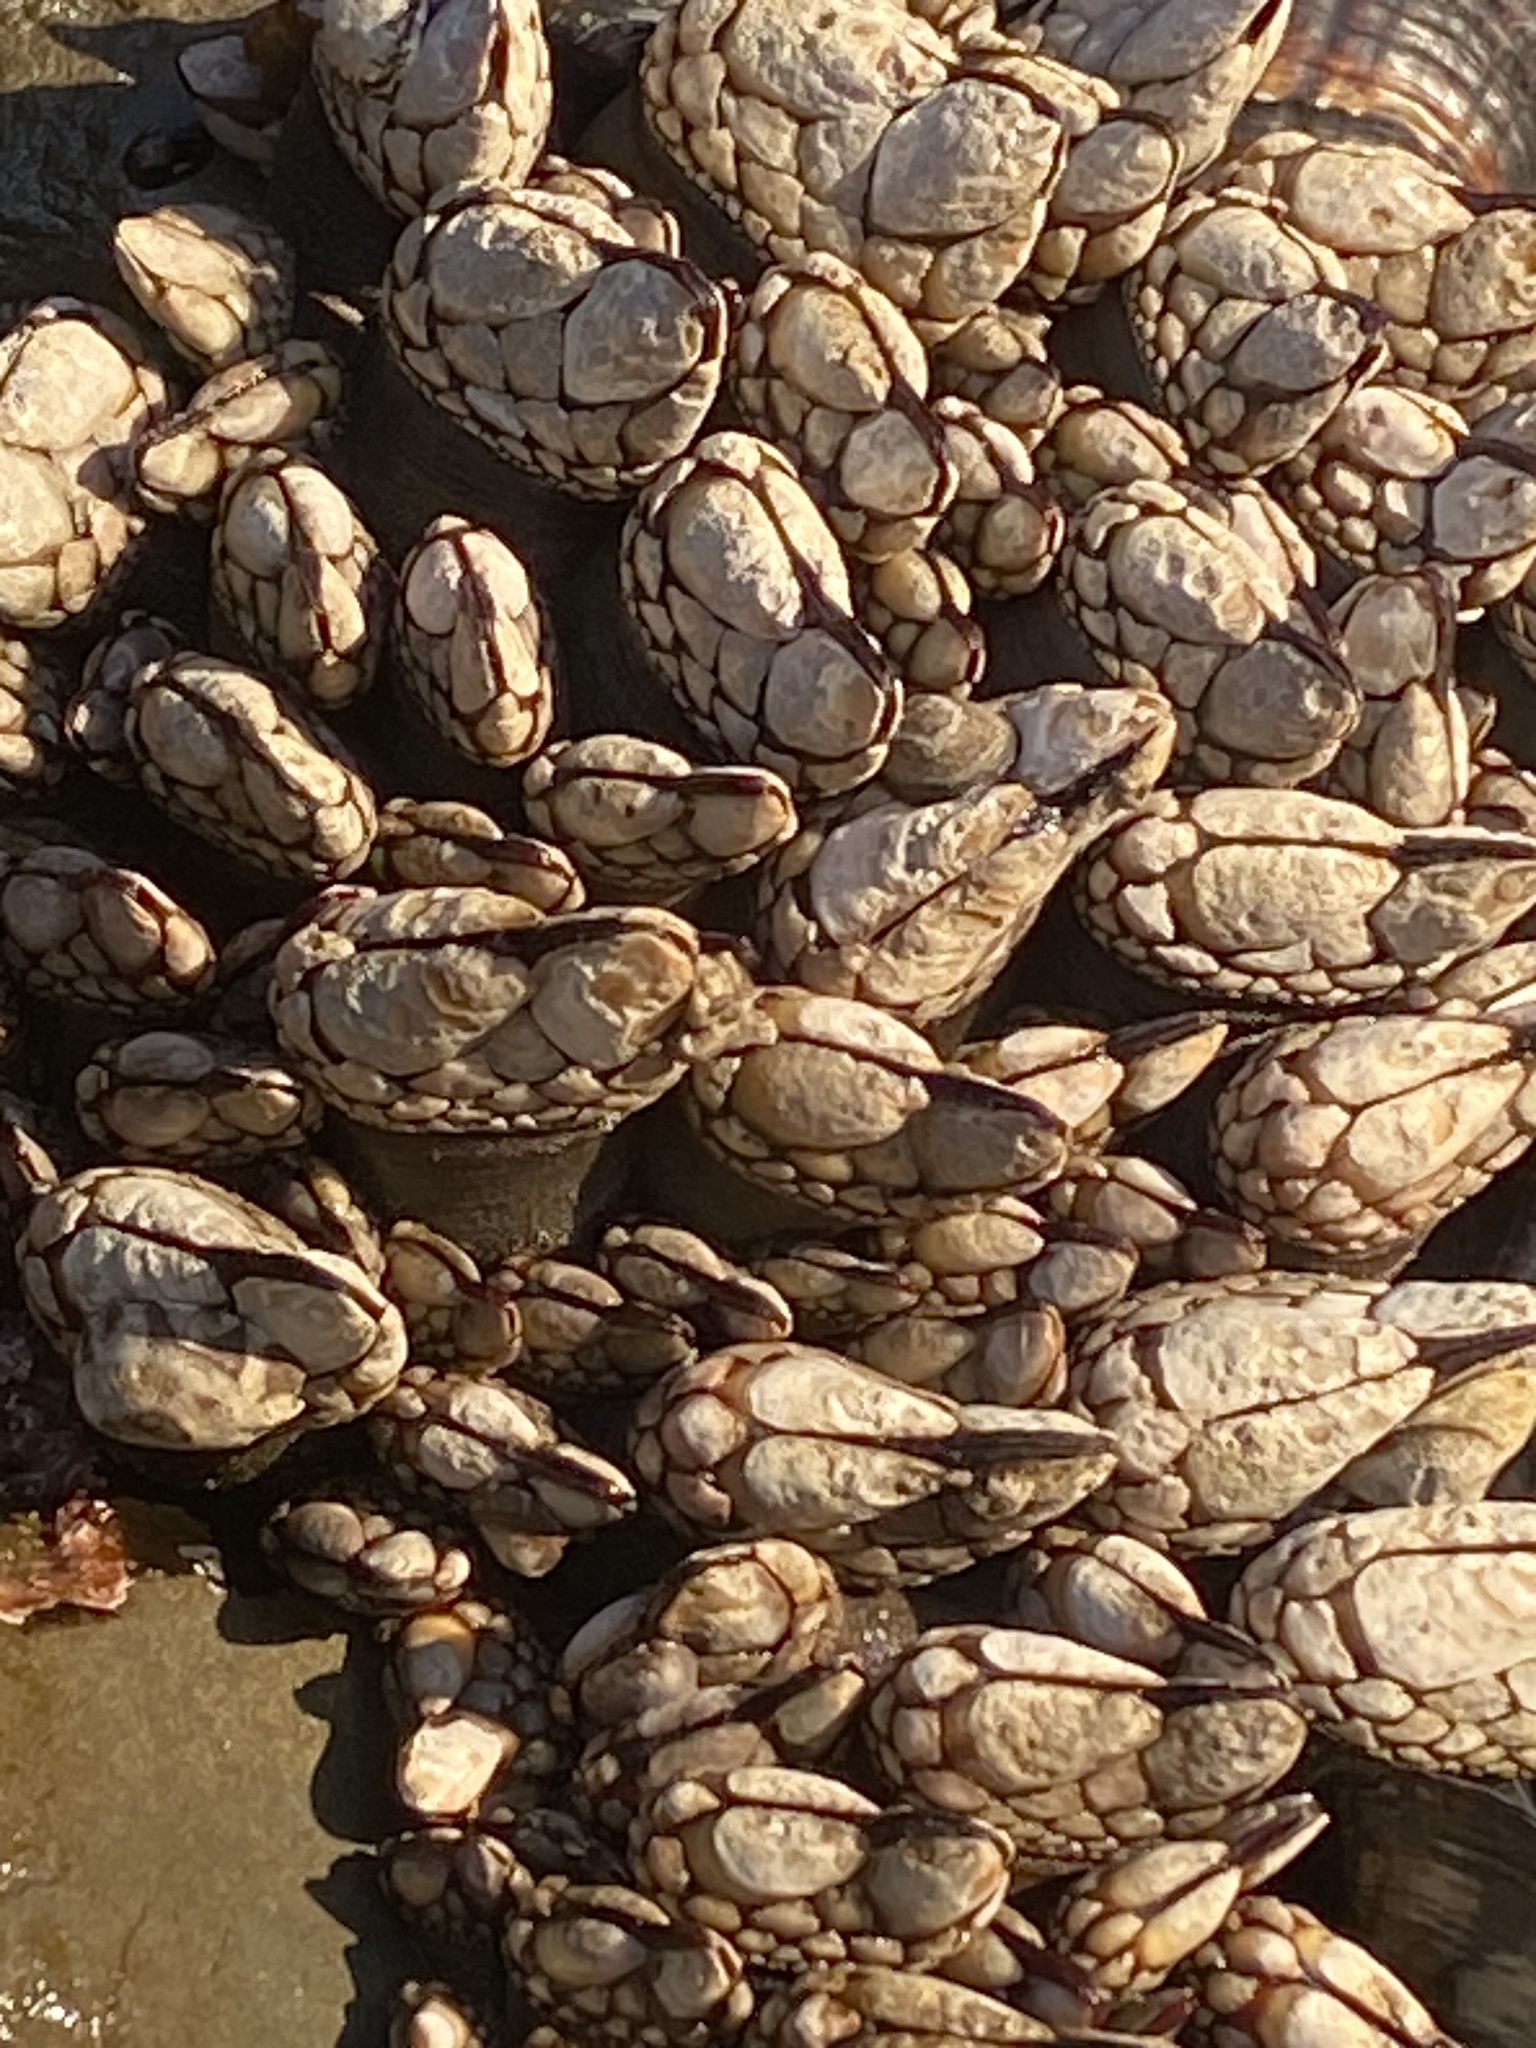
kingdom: Animalia
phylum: Arthropoda
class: Maxillopoda
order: Pedunculata
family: Pollicipedidae
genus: Pollicipes
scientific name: Pollicipes polymerus
